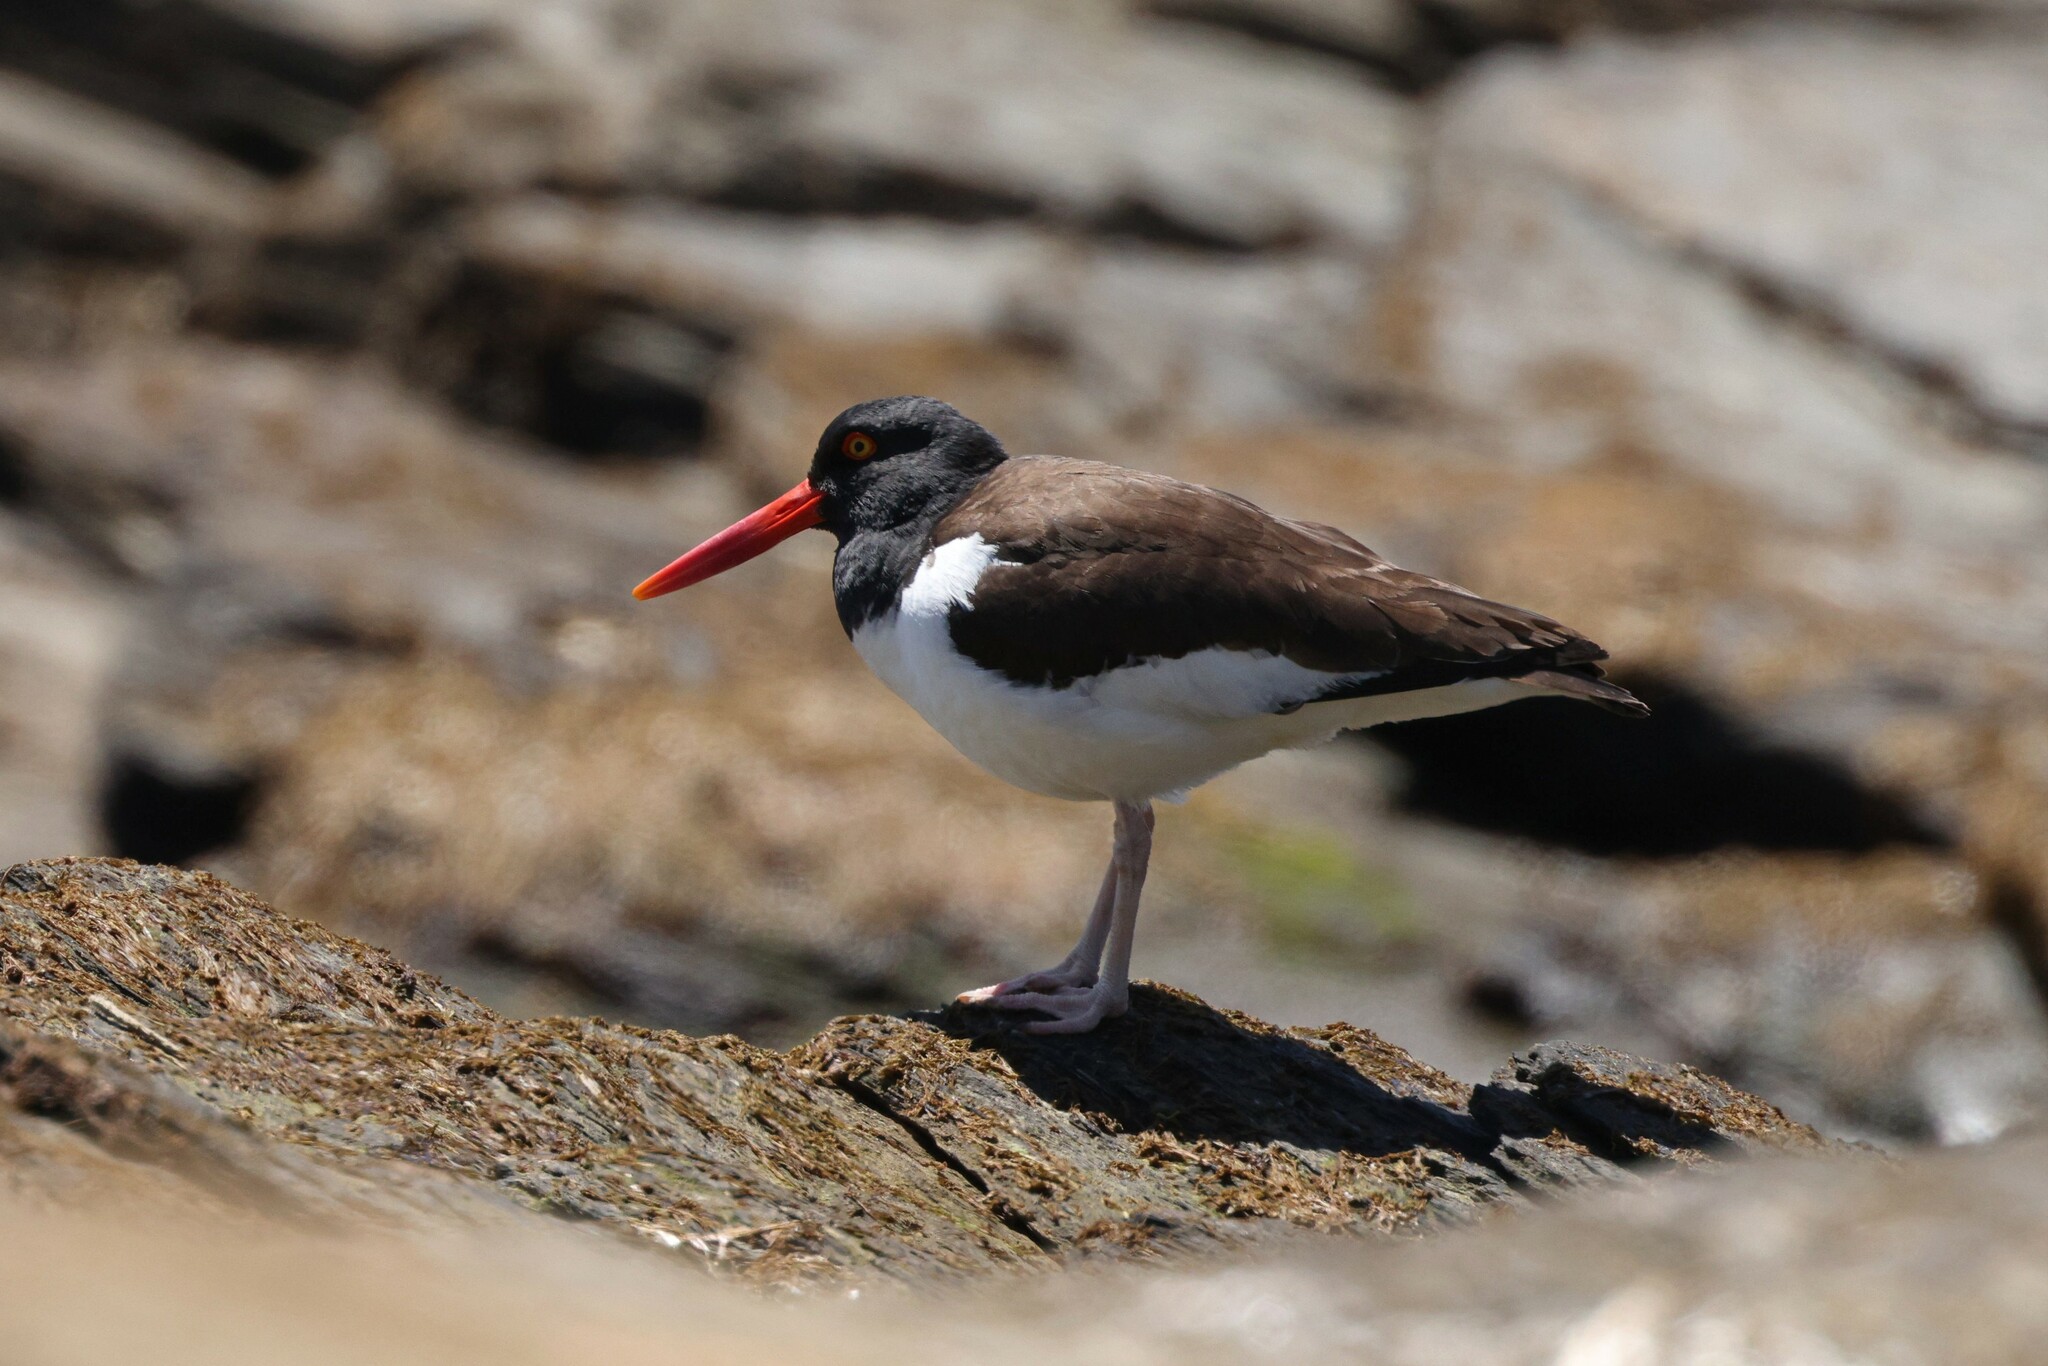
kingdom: Animalia
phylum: Chordata
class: Aves
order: Charadriiformes
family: Haematopodidae
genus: Haematopus
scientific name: Haematopus palliatus
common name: American oystercatcher
